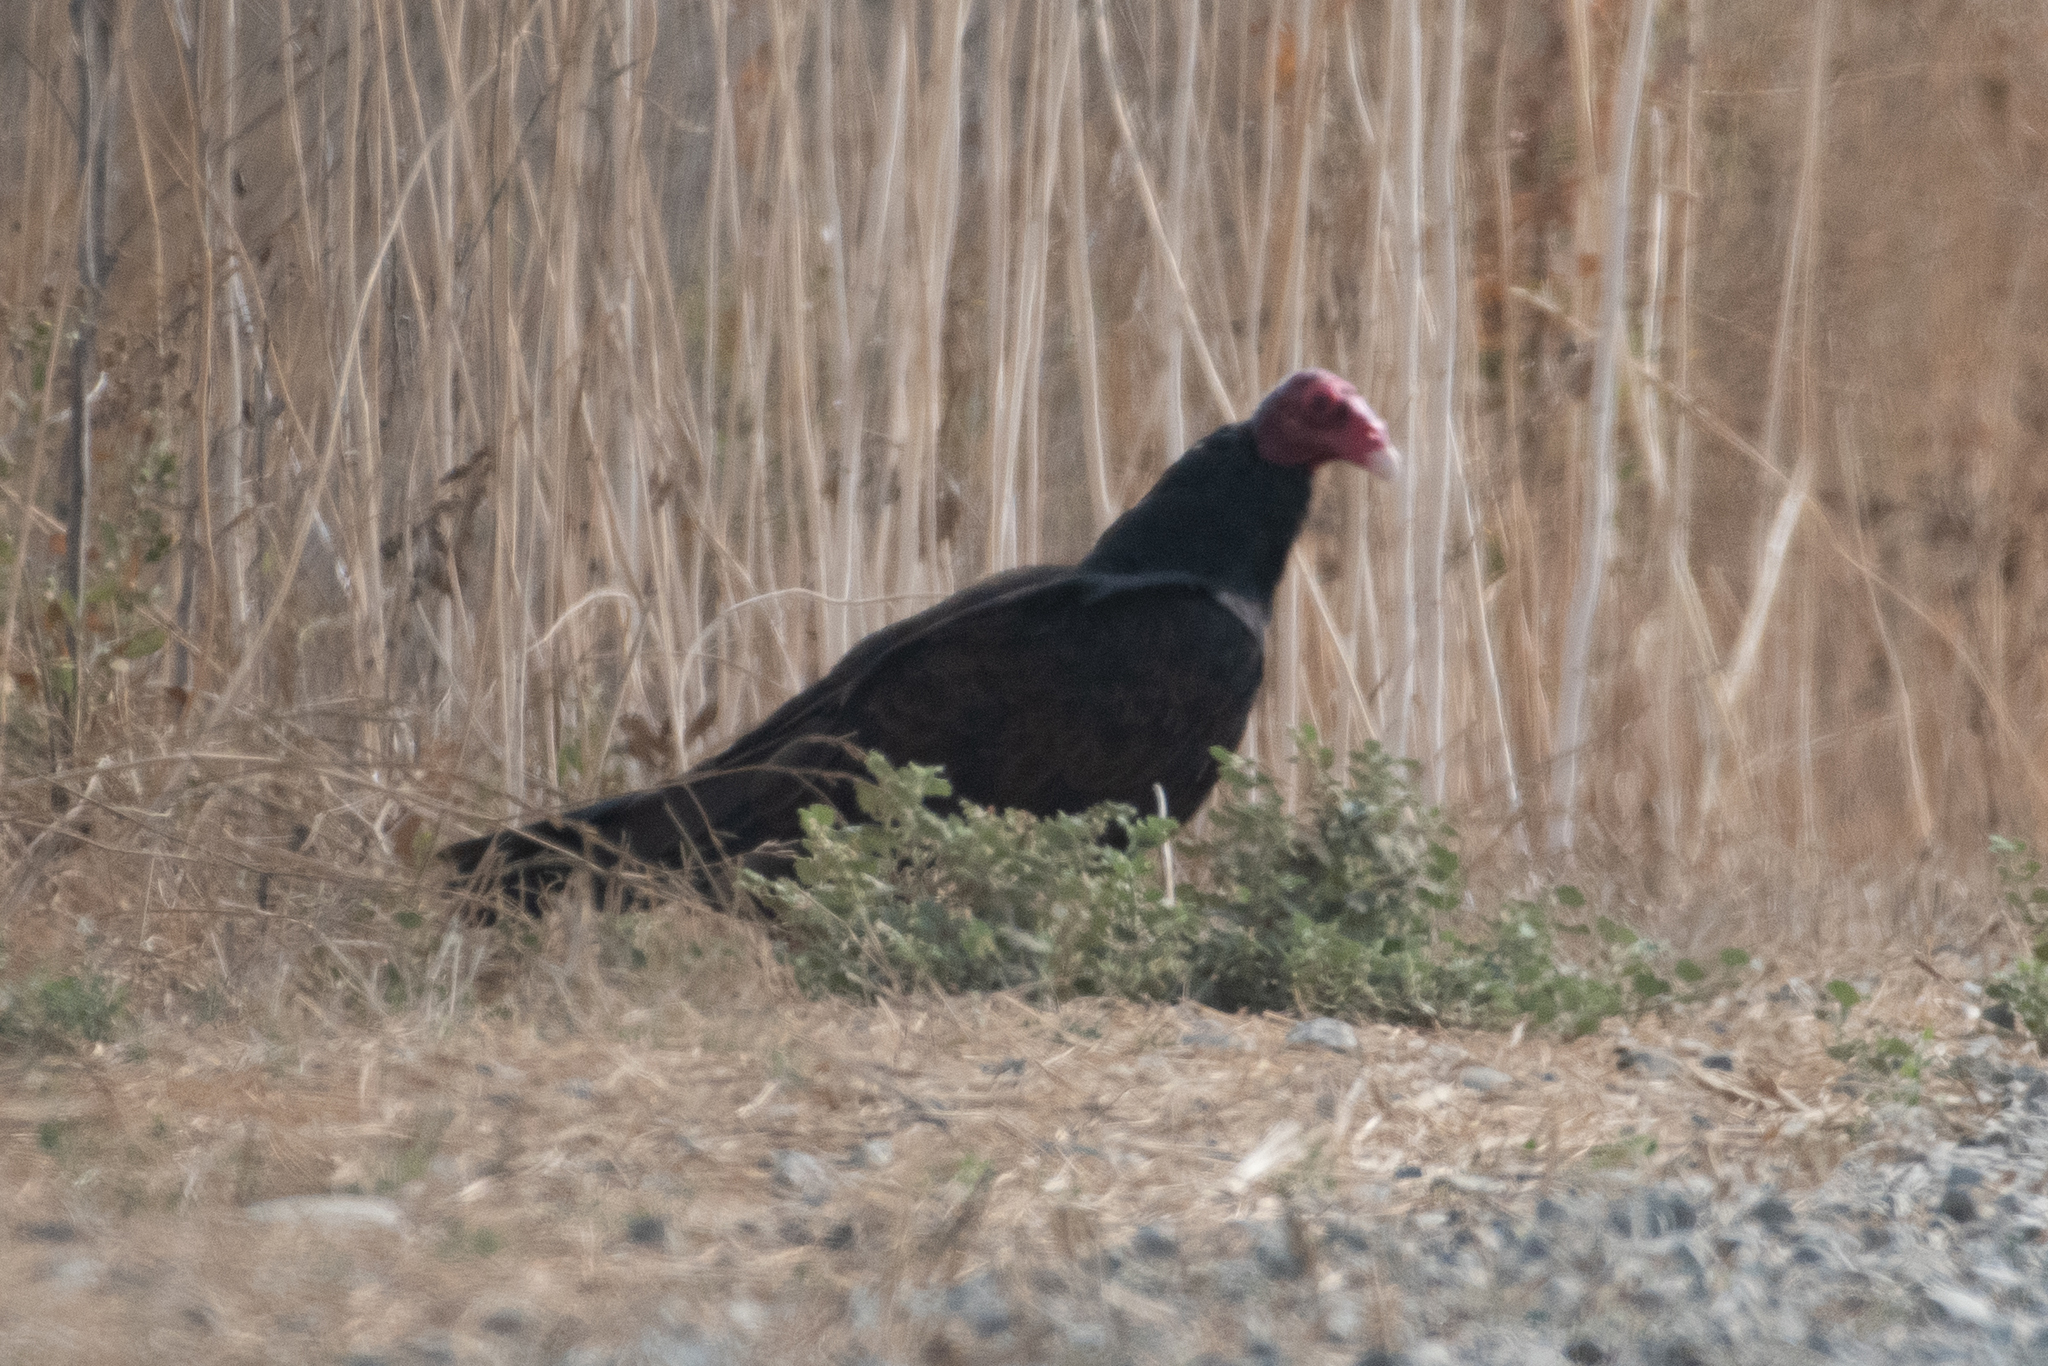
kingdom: Animalia
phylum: Chordata
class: Aves
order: Accipitriformes
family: Cathartidae
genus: Cathartes
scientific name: Cathartes aura
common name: Turkey vulture
